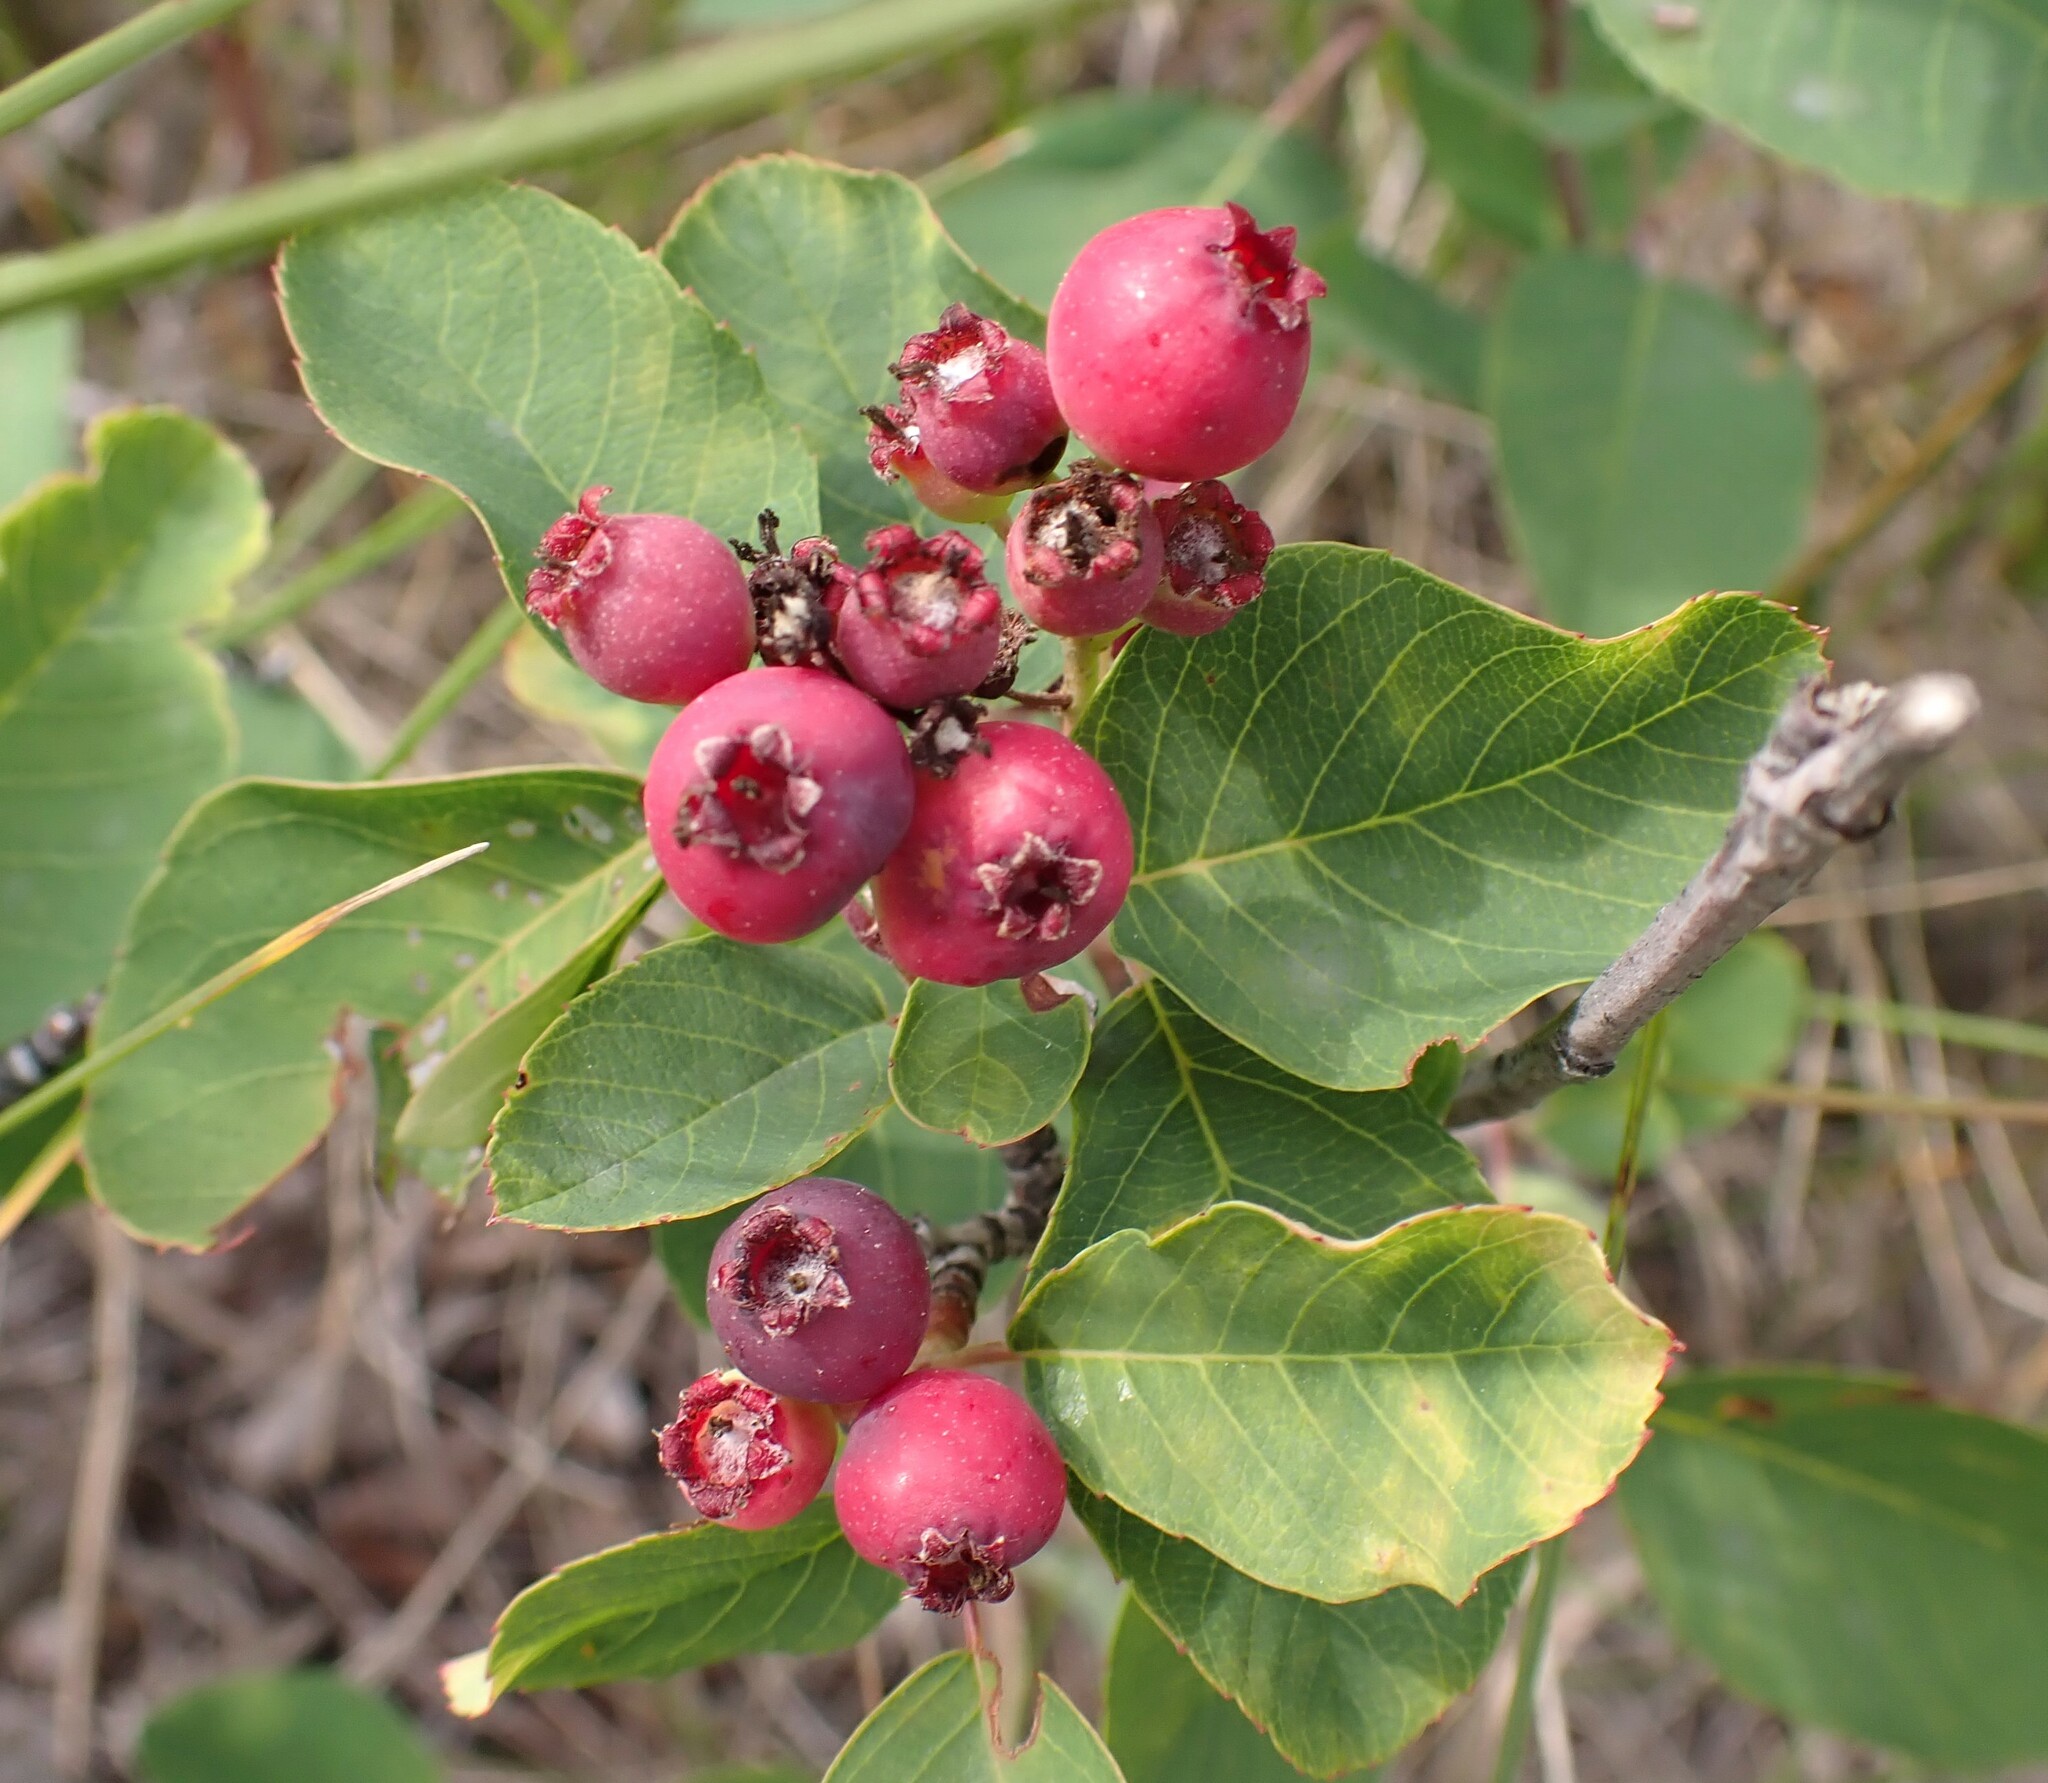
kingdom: Plantae
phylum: Tracheophyta
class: Magnoliopsida
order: Rosales
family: Rosaceae
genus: Amelanchier
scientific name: Amelanchier alnifolia
